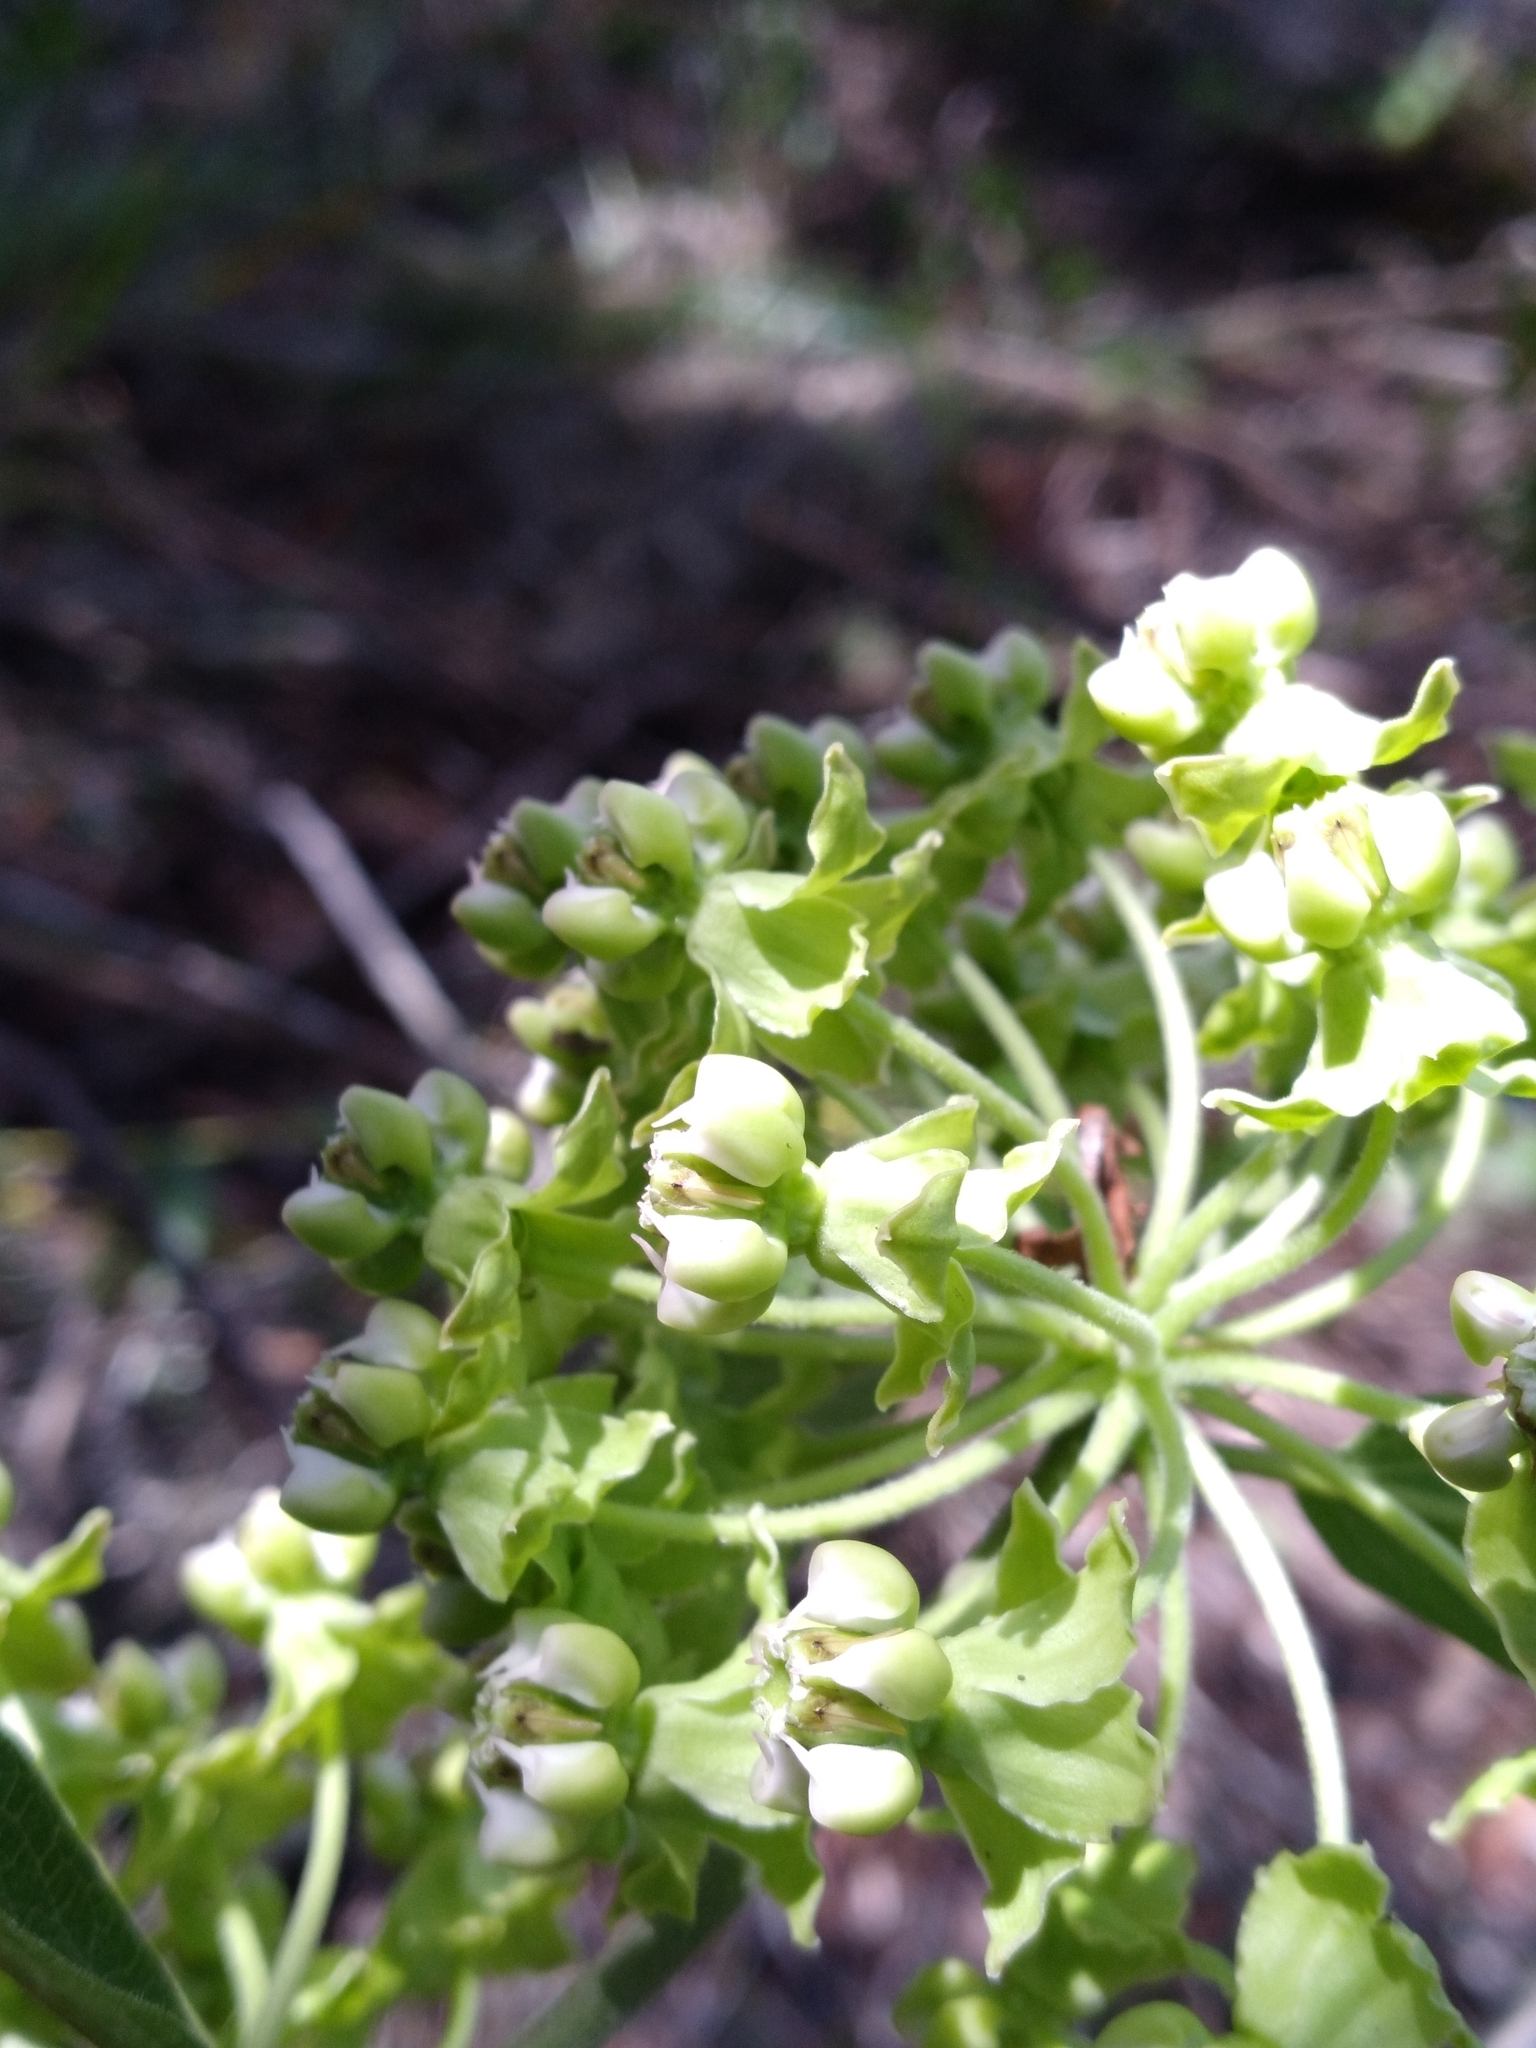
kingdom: Plantae
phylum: Tracheophyta
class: Magnoliopsida
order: Gentianales
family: Apocynaceae
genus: Asclepias
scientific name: Asclepias tomentosa
